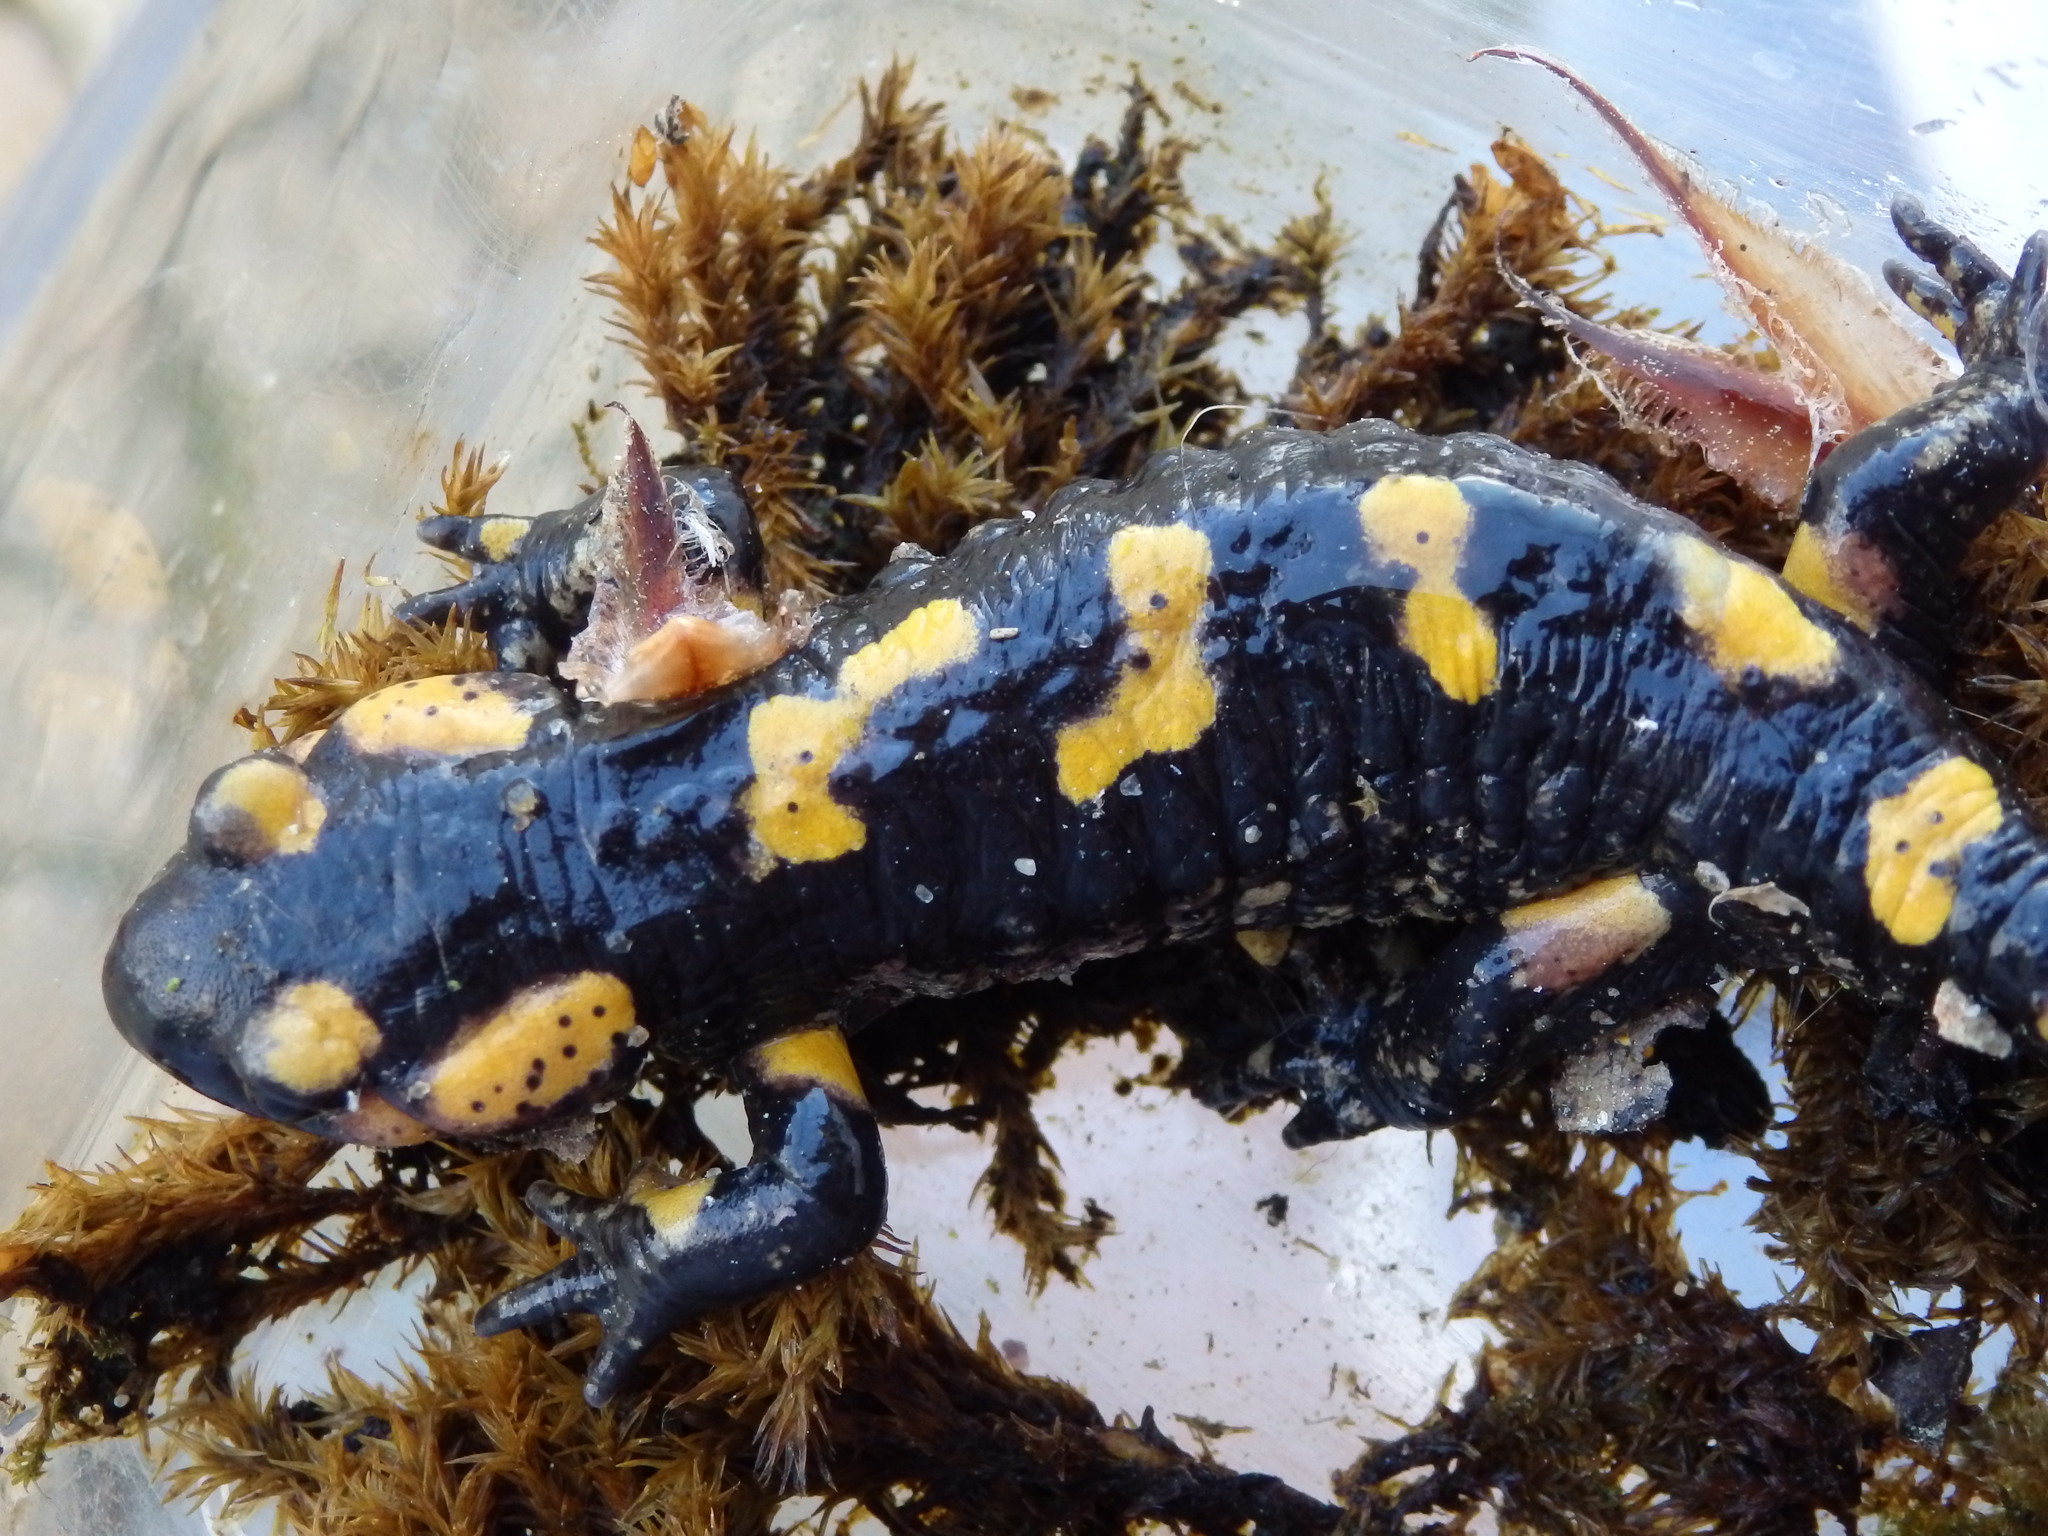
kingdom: Animalia
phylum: Chordata
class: Amphibia
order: Caudata
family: Salamandridae
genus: Salamandra
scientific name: Salamandra salamandra
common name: Fire salamander
